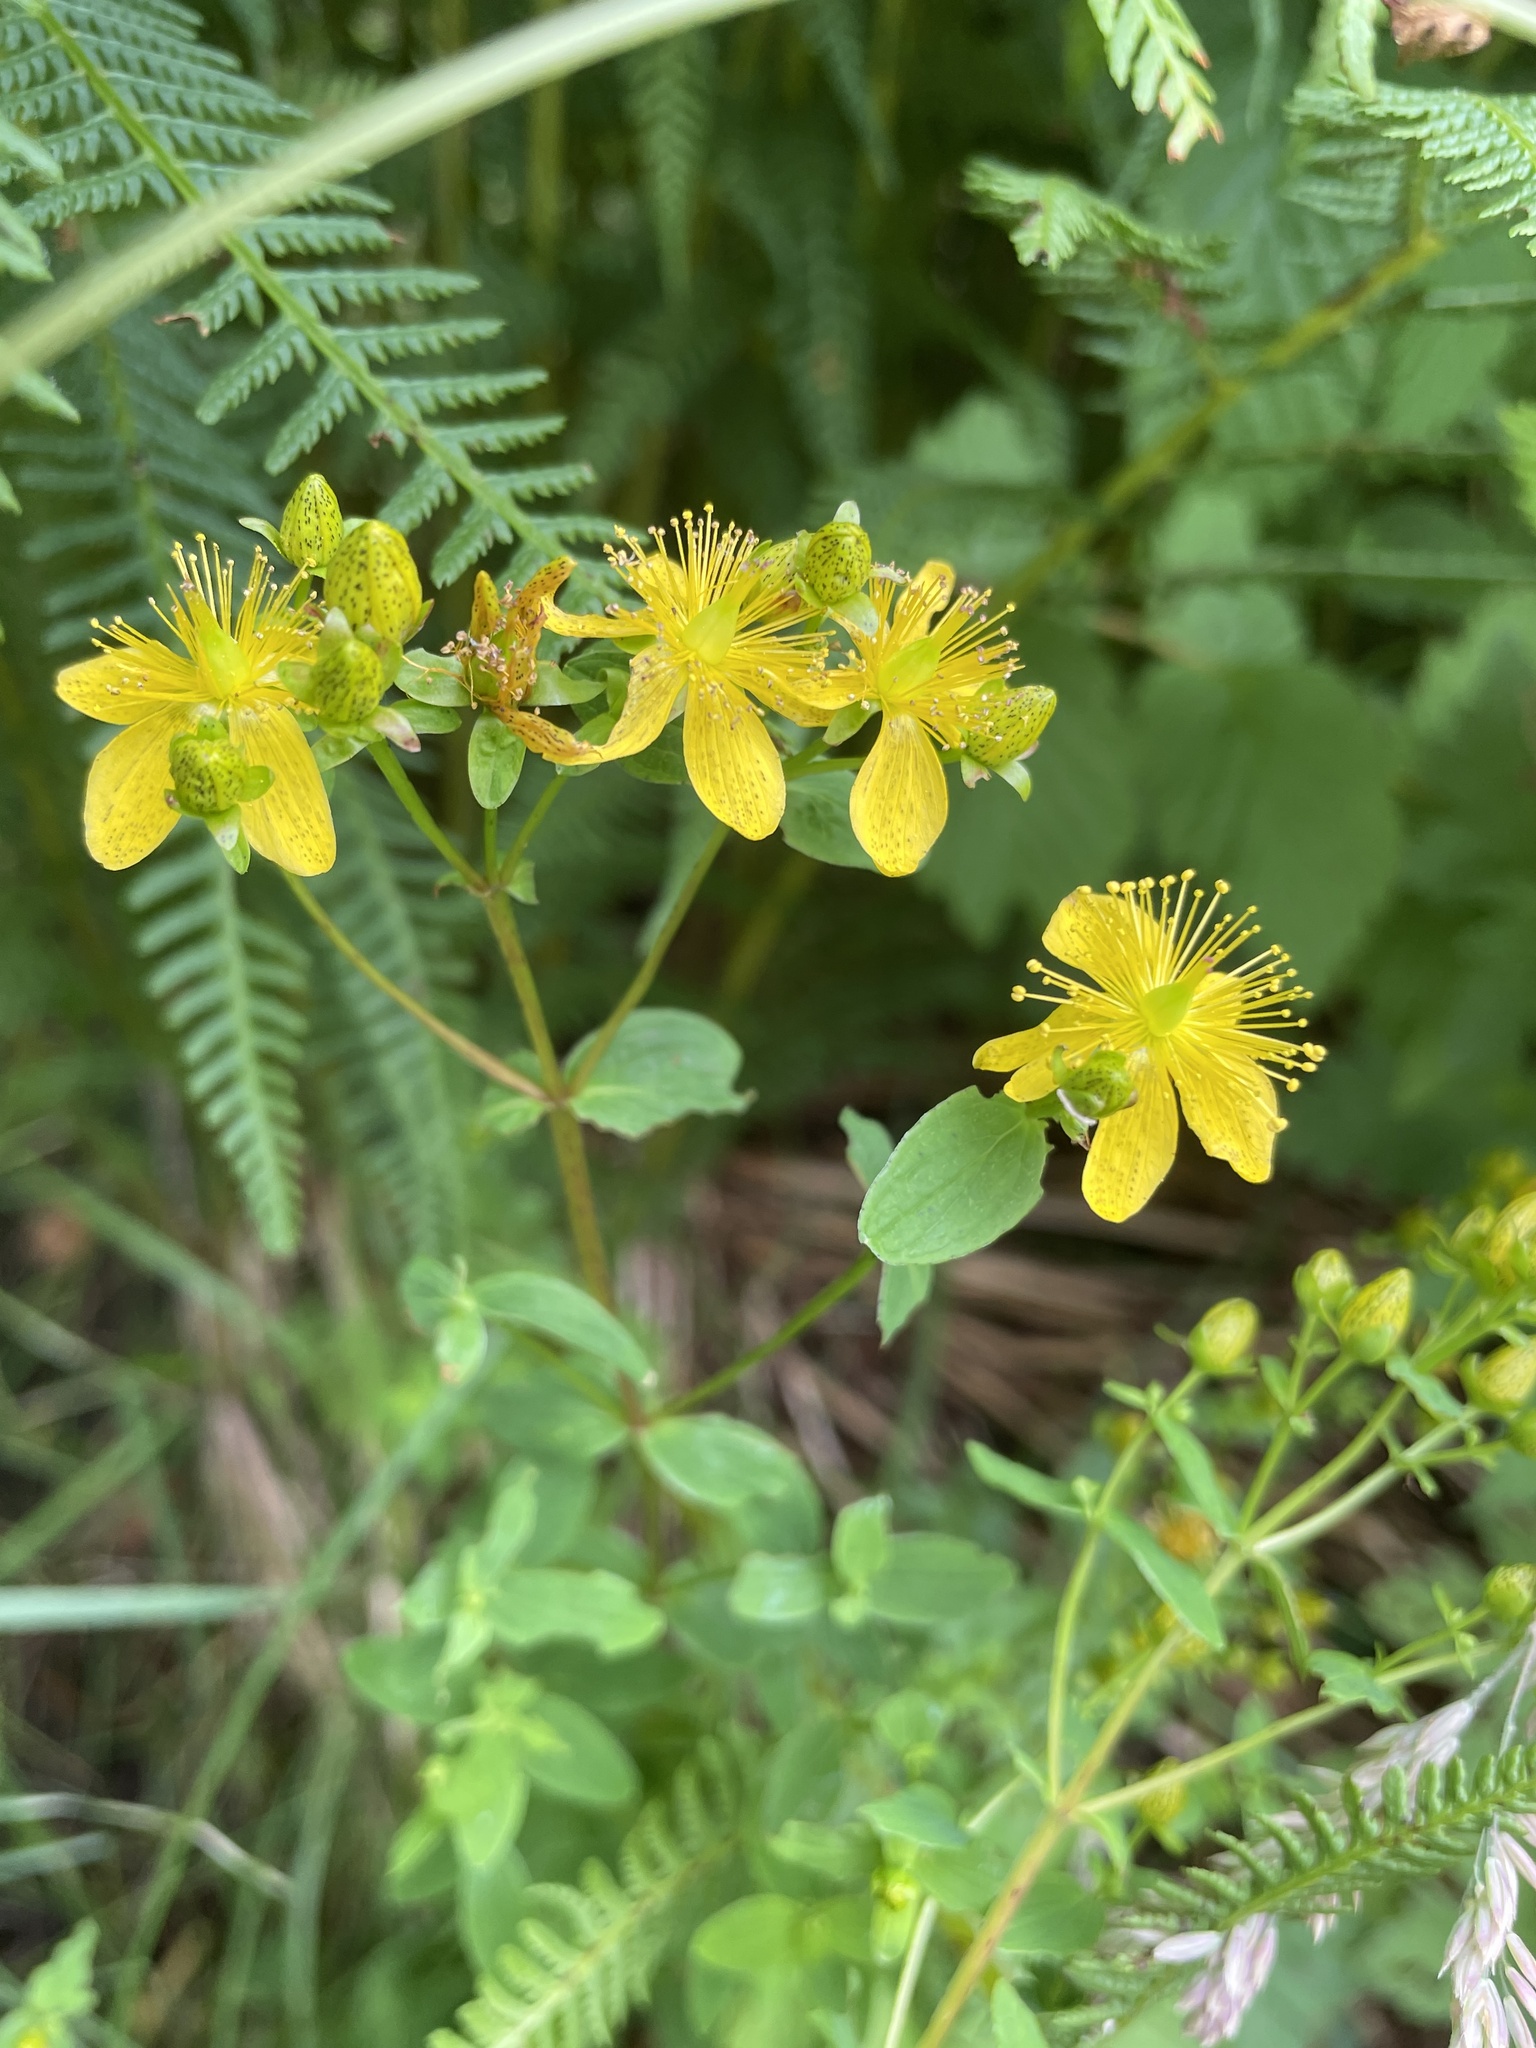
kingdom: Plantae
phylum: Tracheophyta
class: Magnoliopsida
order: Malpighiales
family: Hypericaceae
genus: Hypericum
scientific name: Hypericum maculatum
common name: Imperforate st. john's-wort
